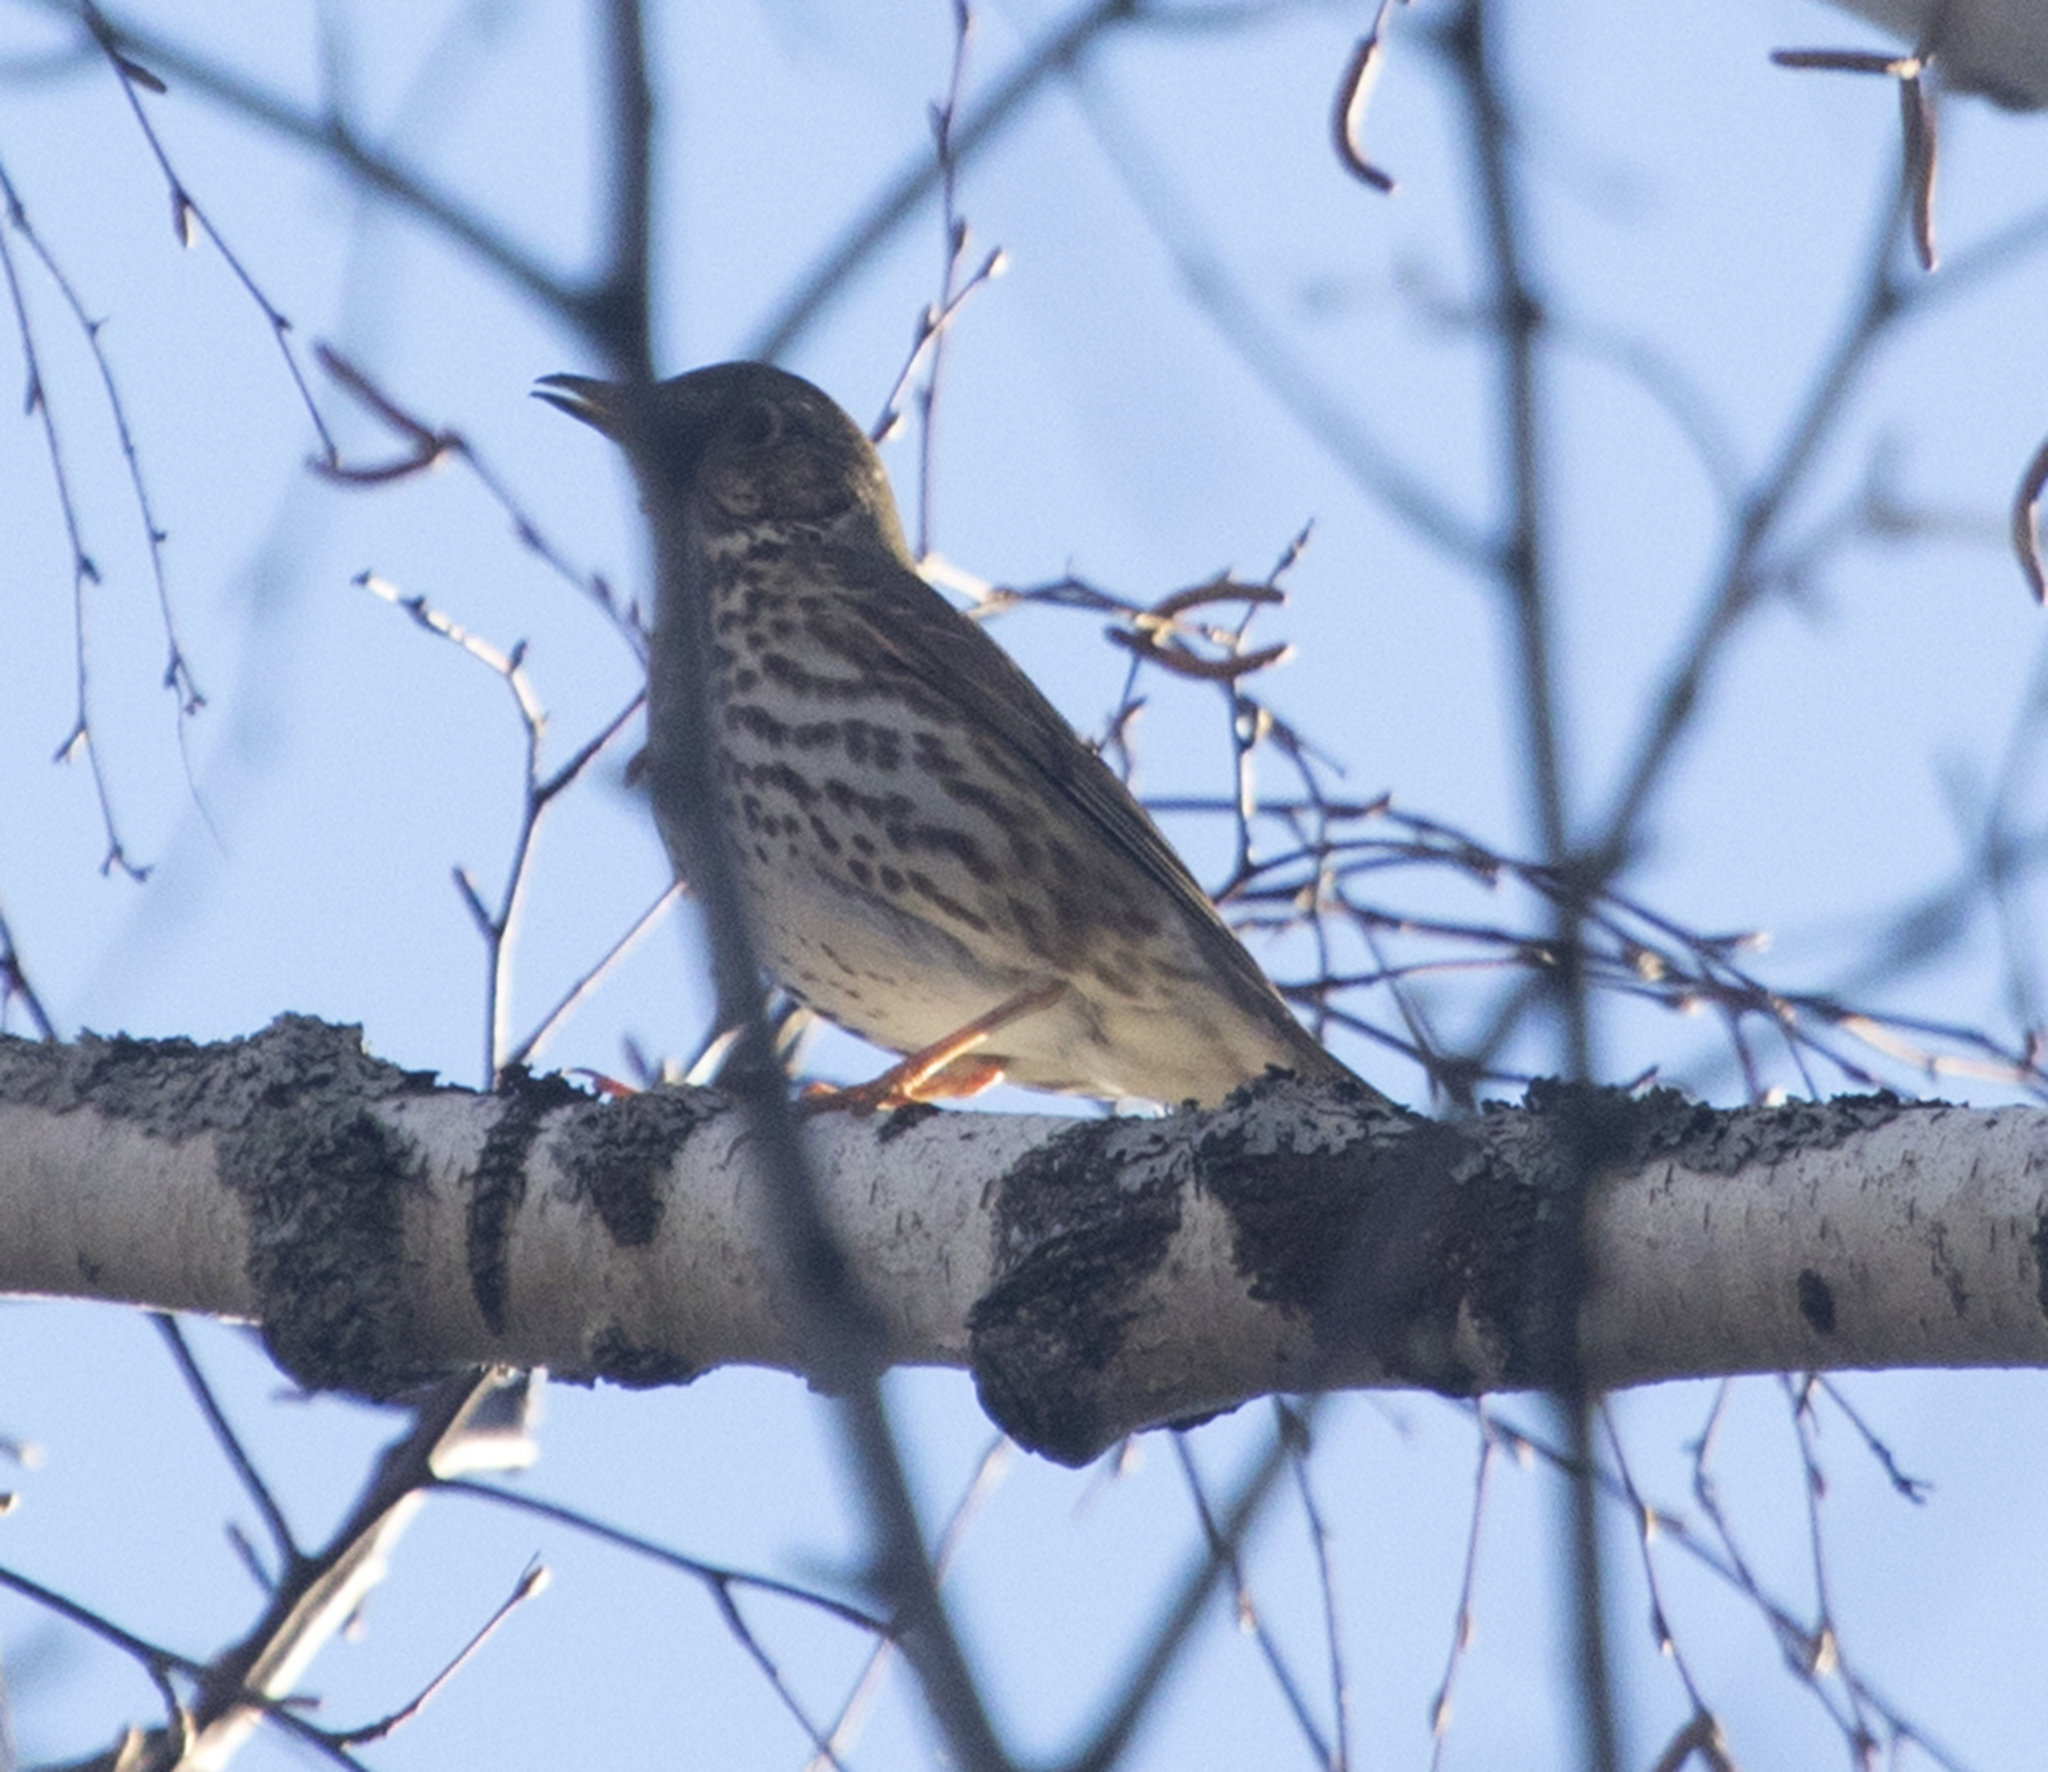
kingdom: Animalia
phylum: Chordata
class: Aves
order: Passeriformes
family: Turdidae
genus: Turdus
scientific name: Turdus philomelos
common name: Song thrush
